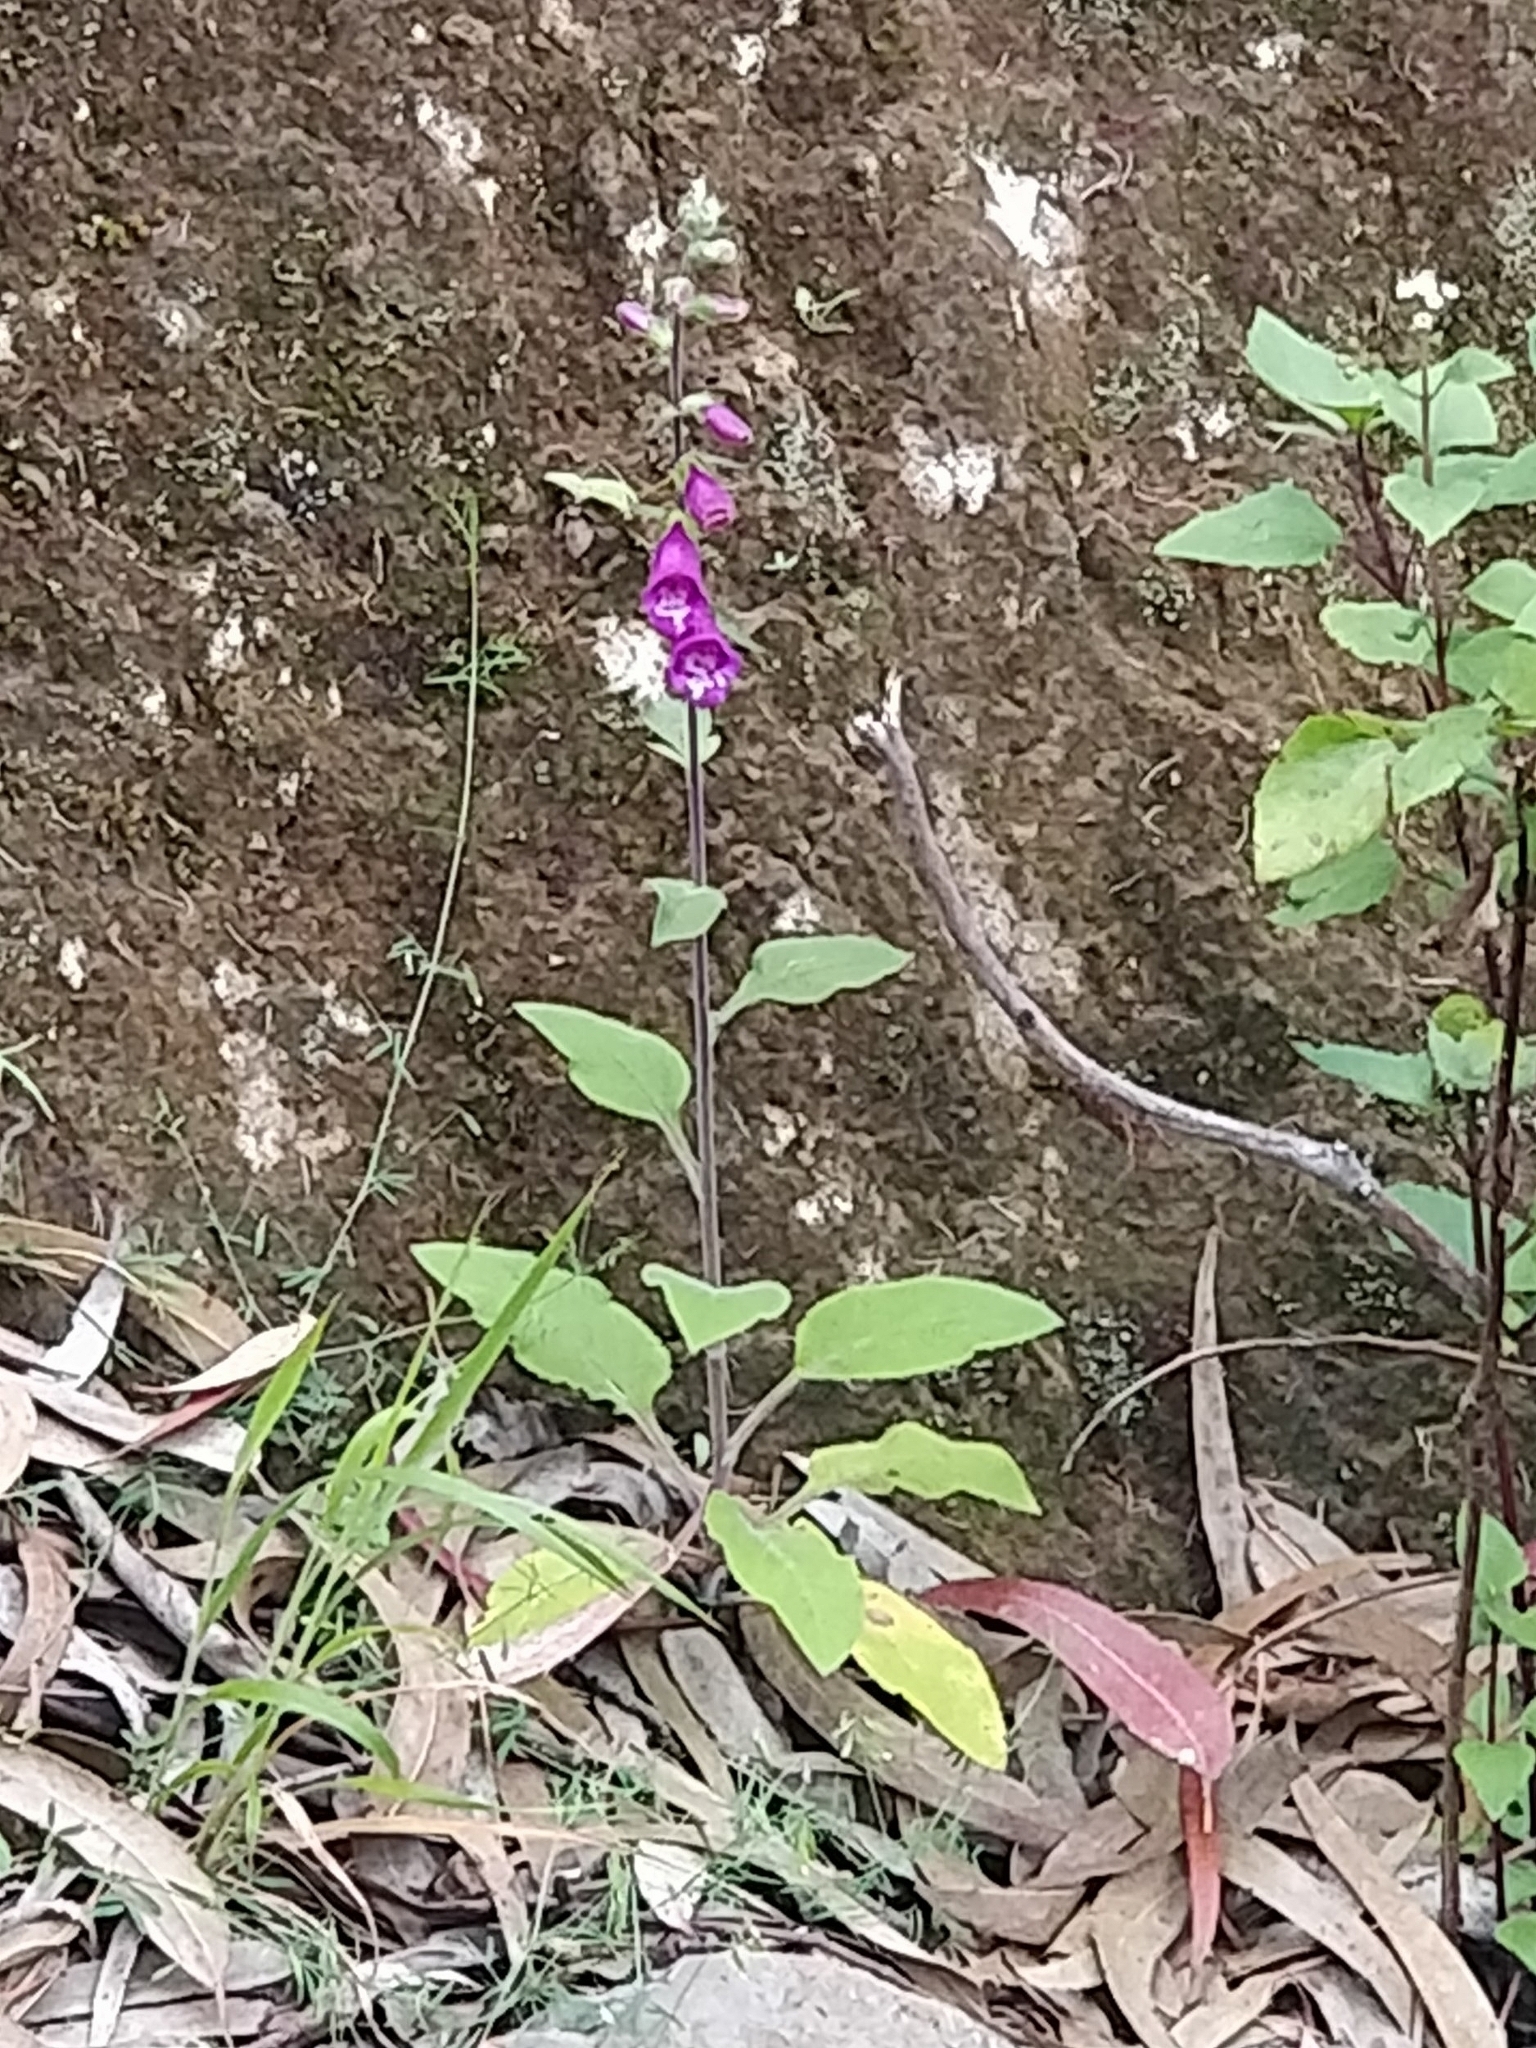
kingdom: Plantae
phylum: Tracheophyta
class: Magnoliopsida
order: Lamiales
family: Plantaginaceae
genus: Digitalis
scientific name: Digitalis purpurea
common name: Foxglove
